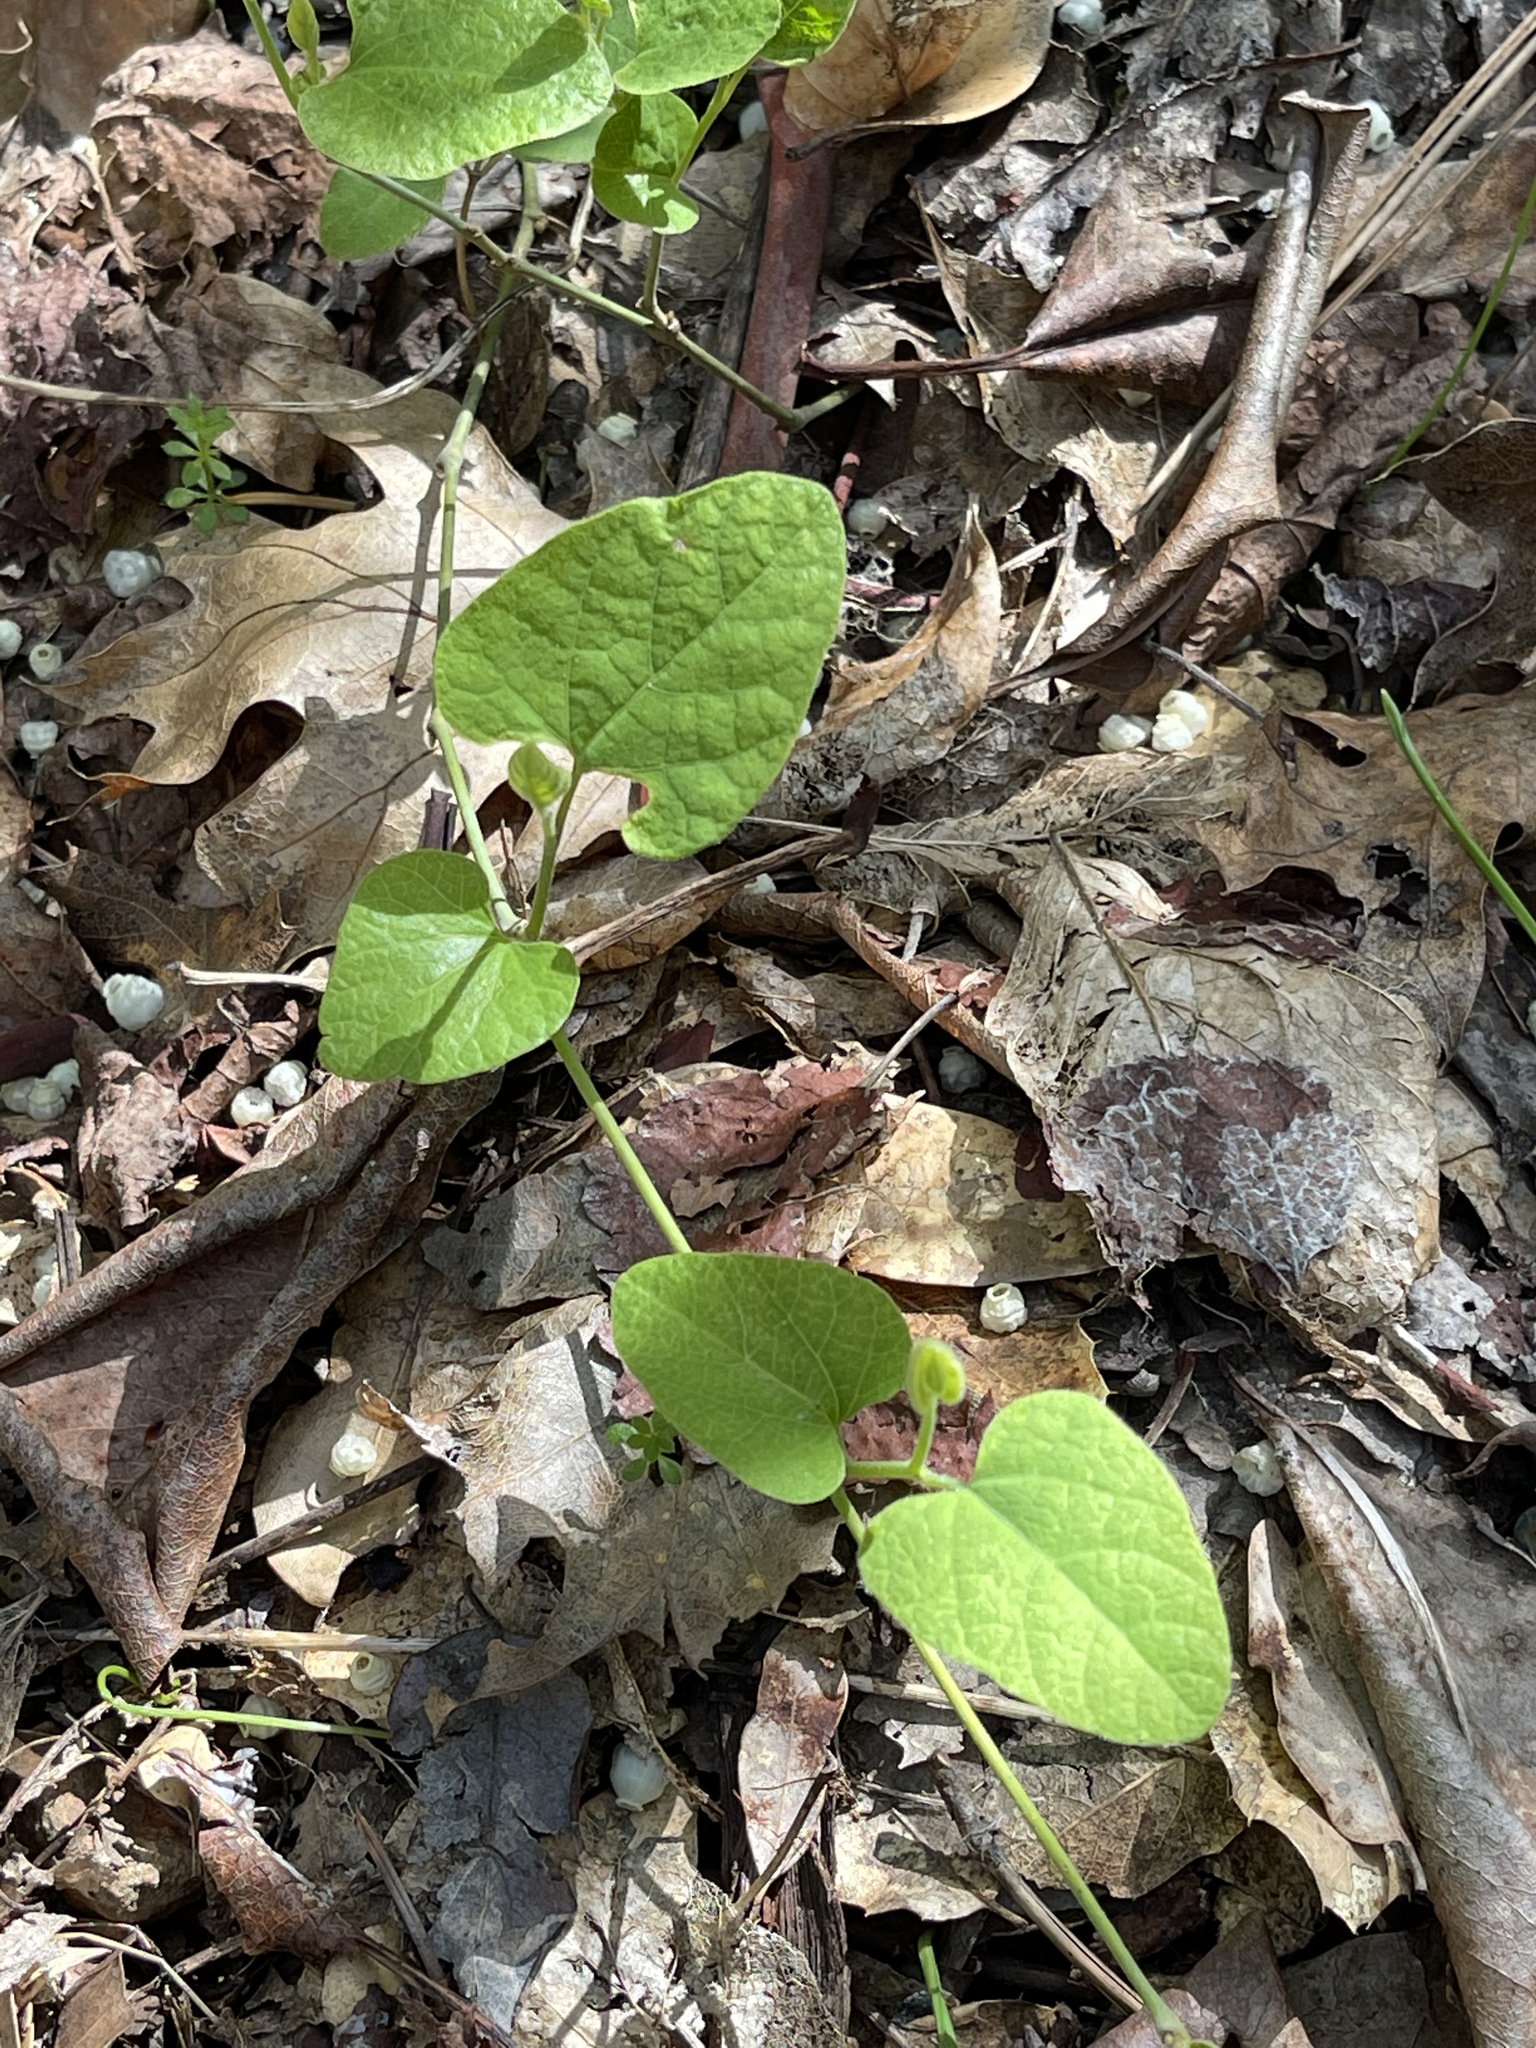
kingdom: Plantae
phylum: Tracheophyta
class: Magnoliopsida
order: Piperales
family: Aristolochiaceae
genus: Isotrema
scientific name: Isotrema californicum
